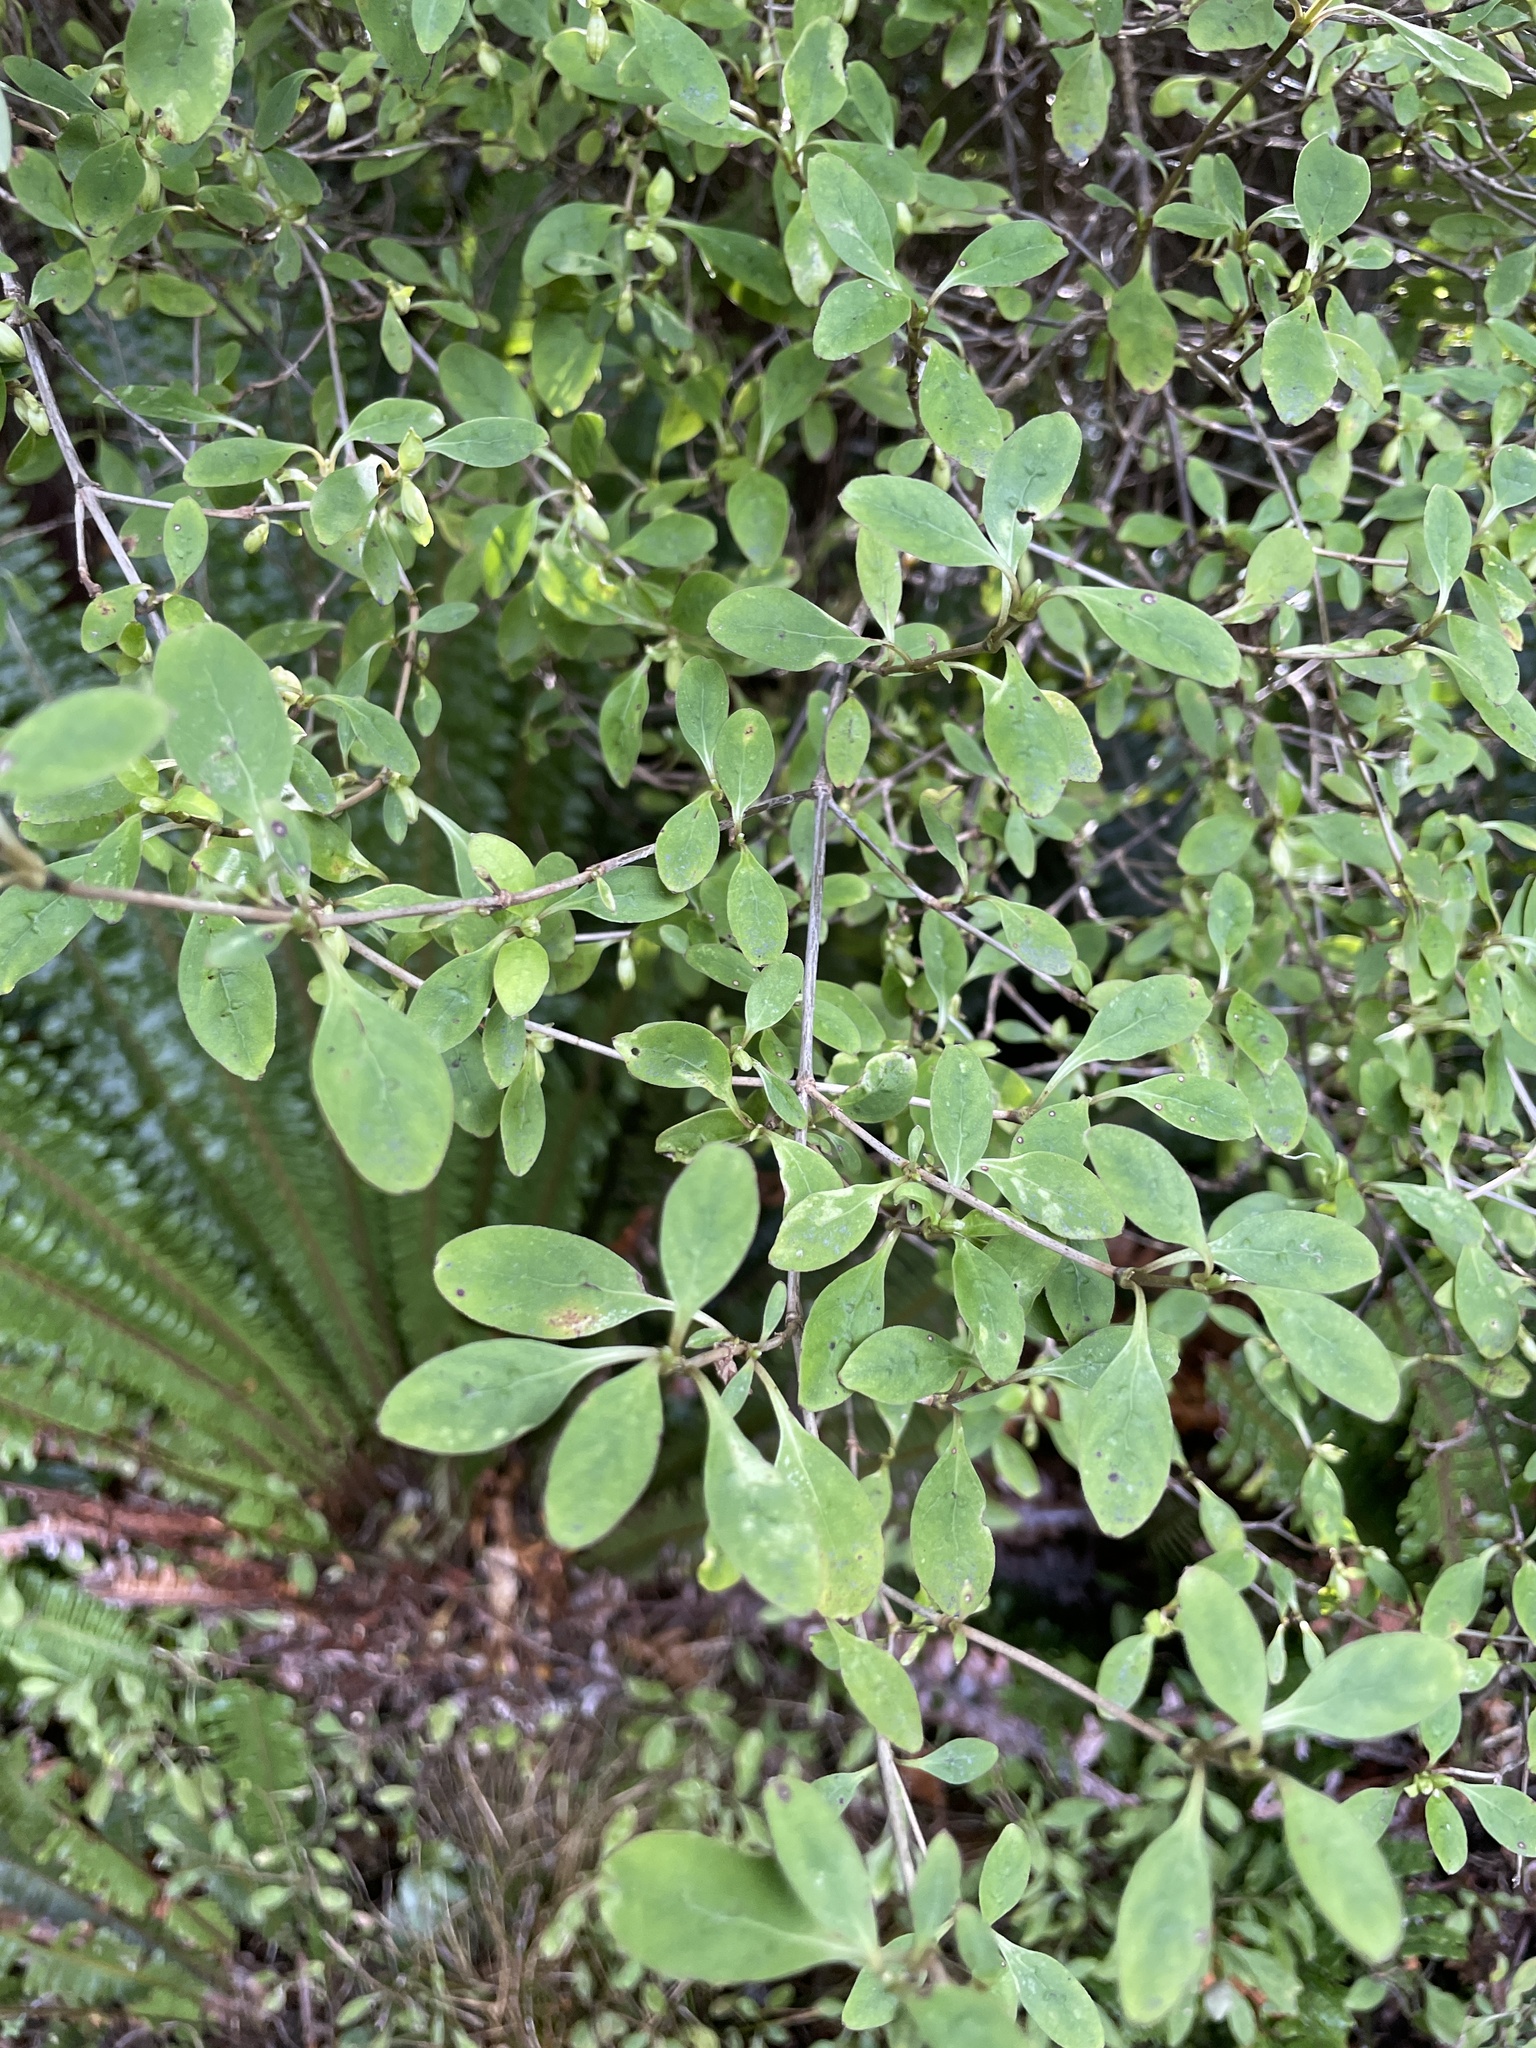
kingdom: Plantae
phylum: Tracheophyta
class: Magnoliopsida
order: Gentianales
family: Rubiaceae
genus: Coprosma
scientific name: Coprosma foetidissima
